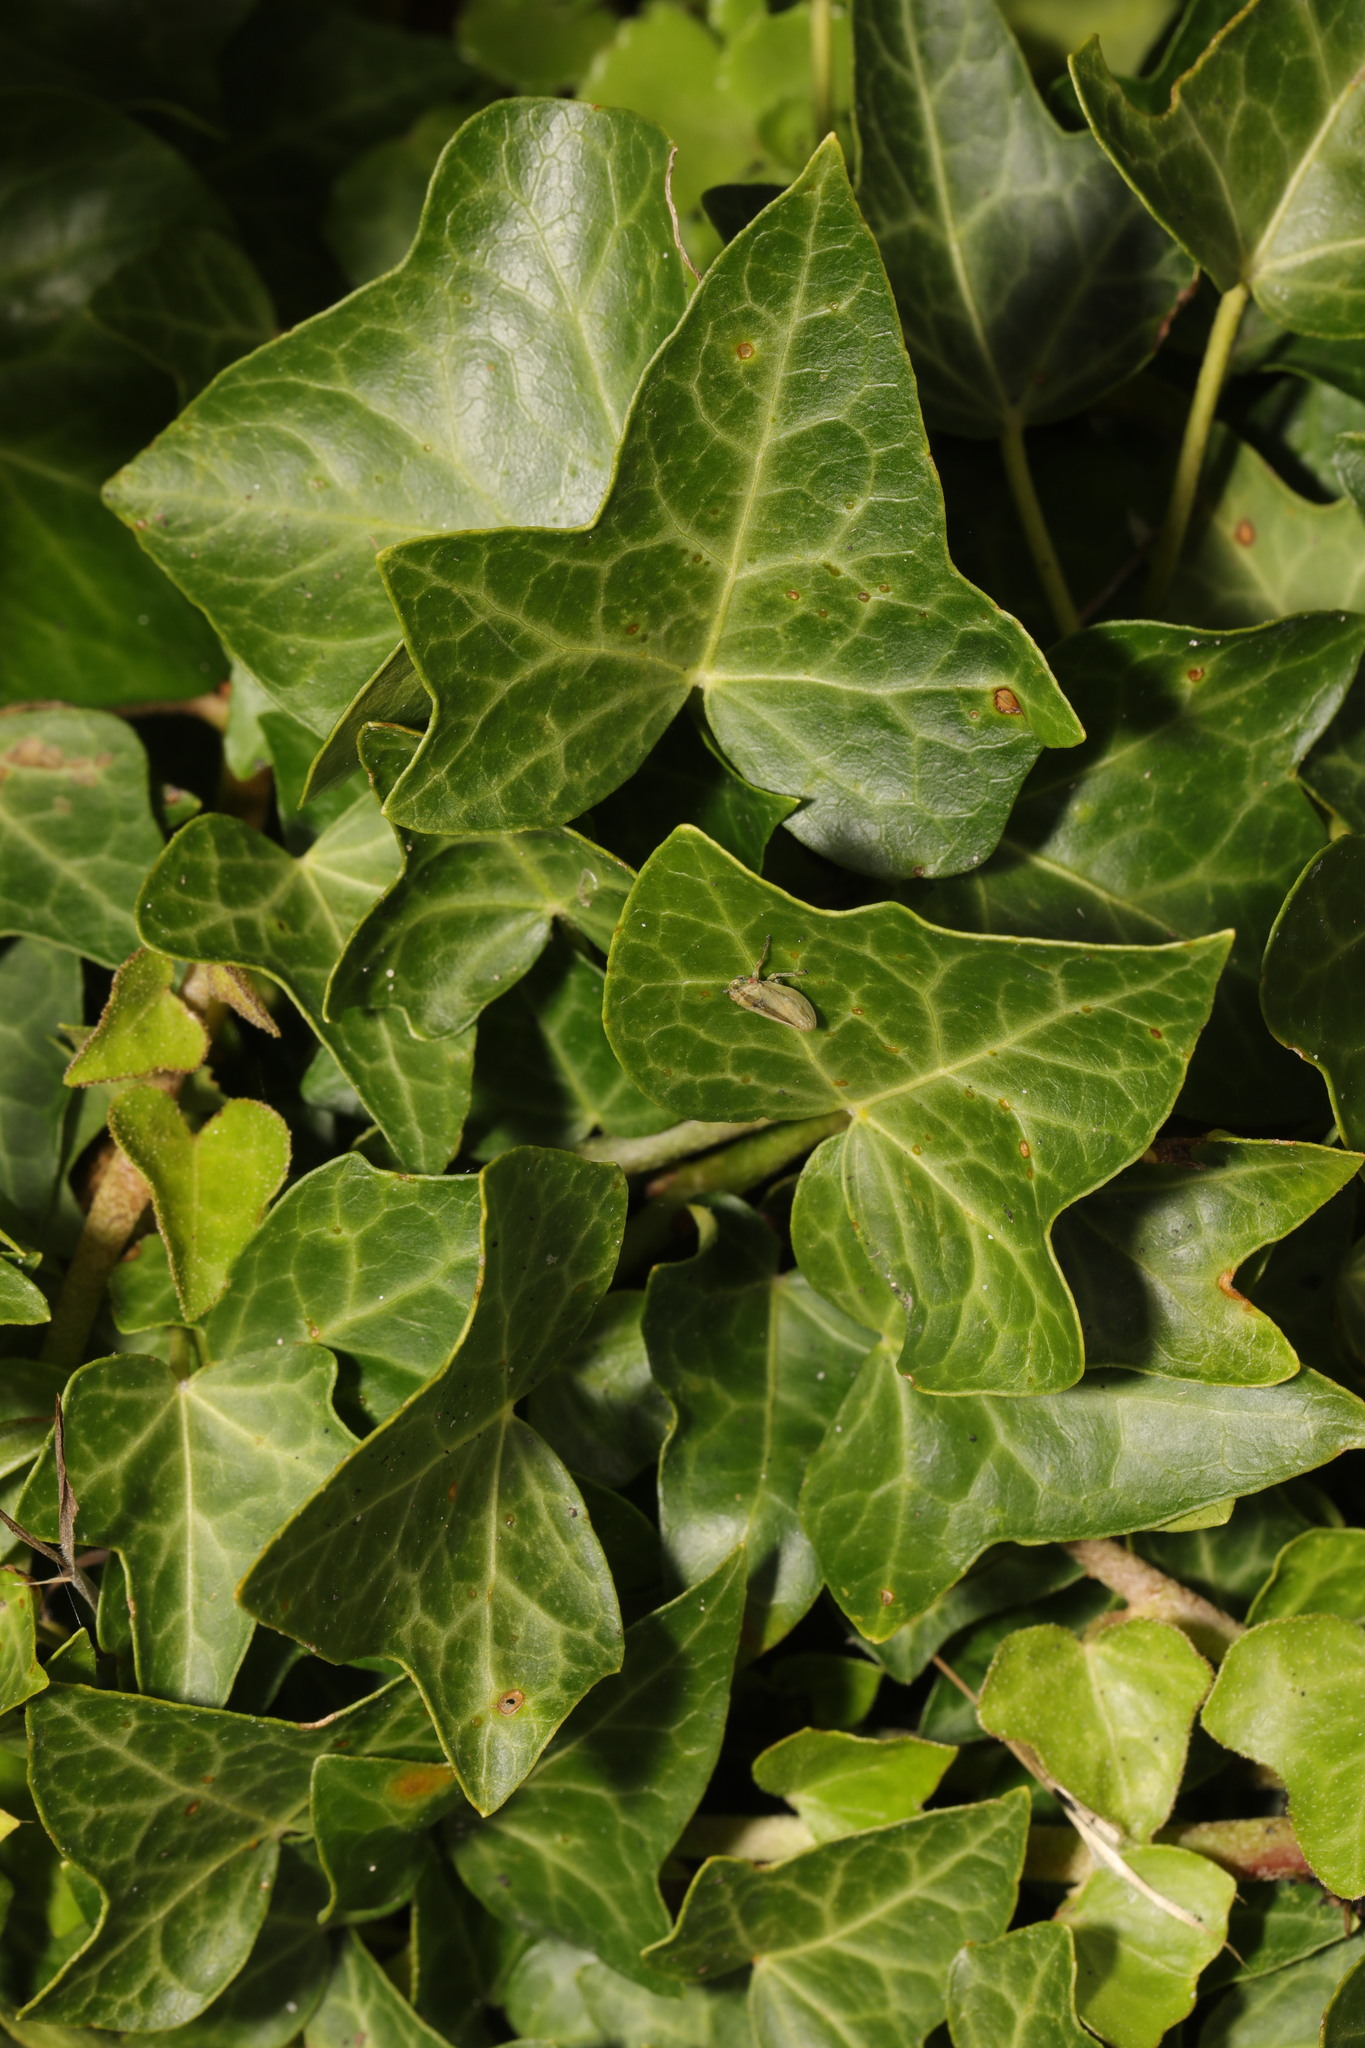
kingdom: Plantae
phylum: Tracheophyta
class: Magnoliopsida
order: Apiales
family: Araliaceae
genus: Hedera
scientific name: Hedera helix
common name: Ivy
